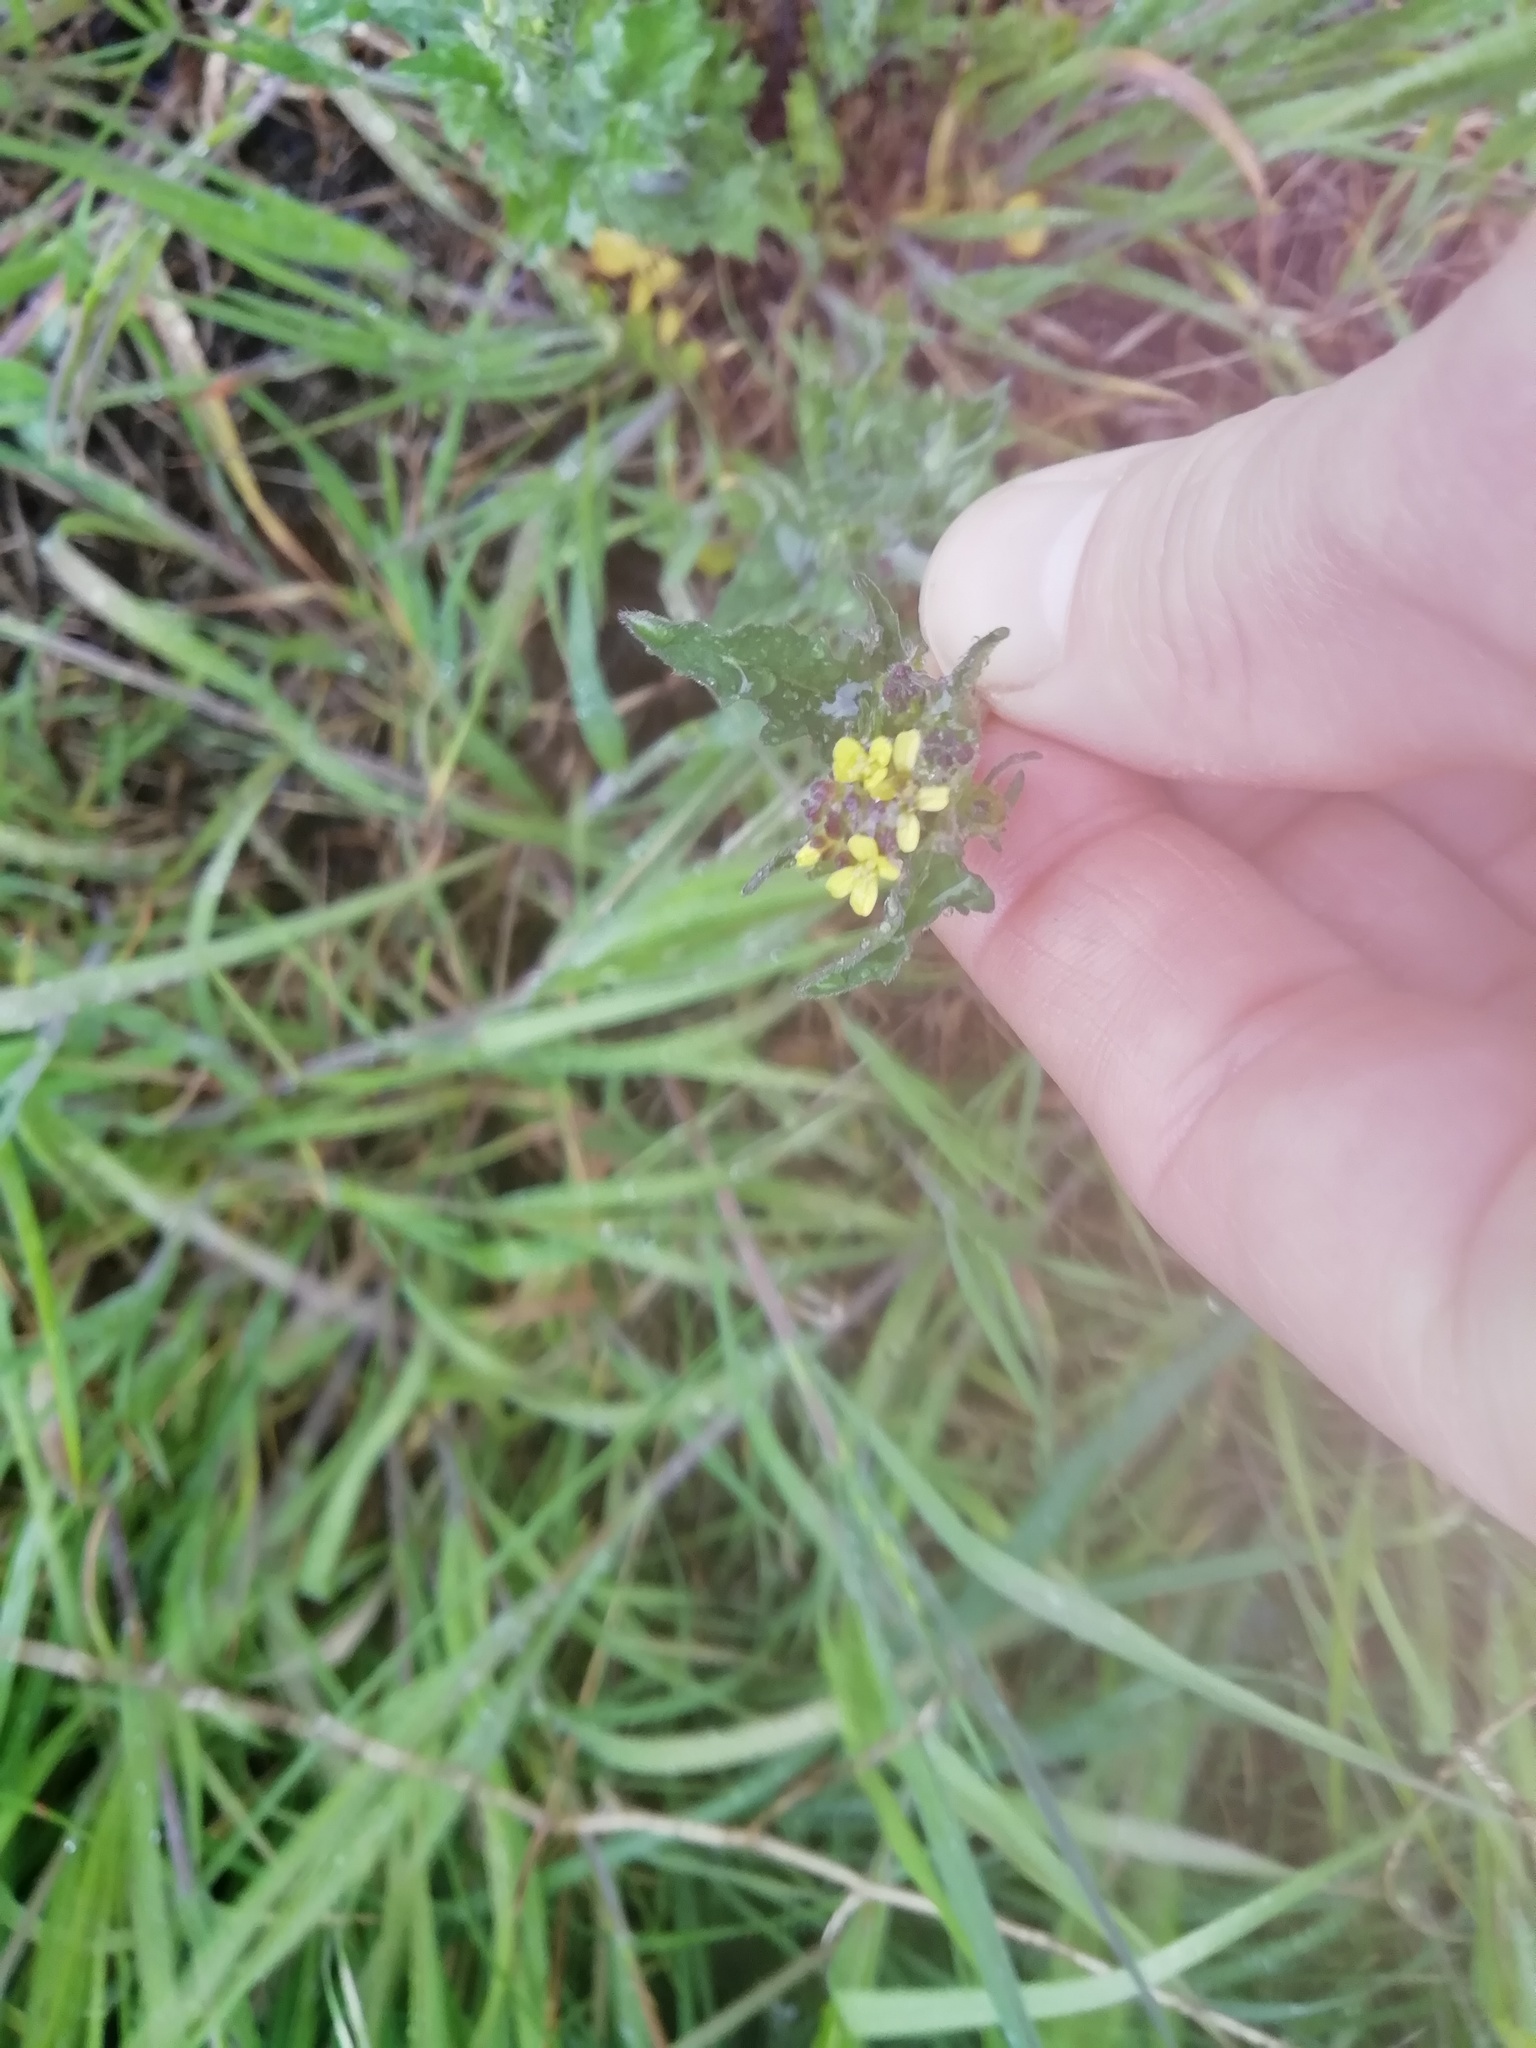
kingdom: Plantae
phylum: Tracheophyta
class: Magnoliopsida
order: Brassicales
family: Brassicaceae
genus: Sisymbrium
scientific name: Sisymbrium officinale
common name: Hedge mustard
